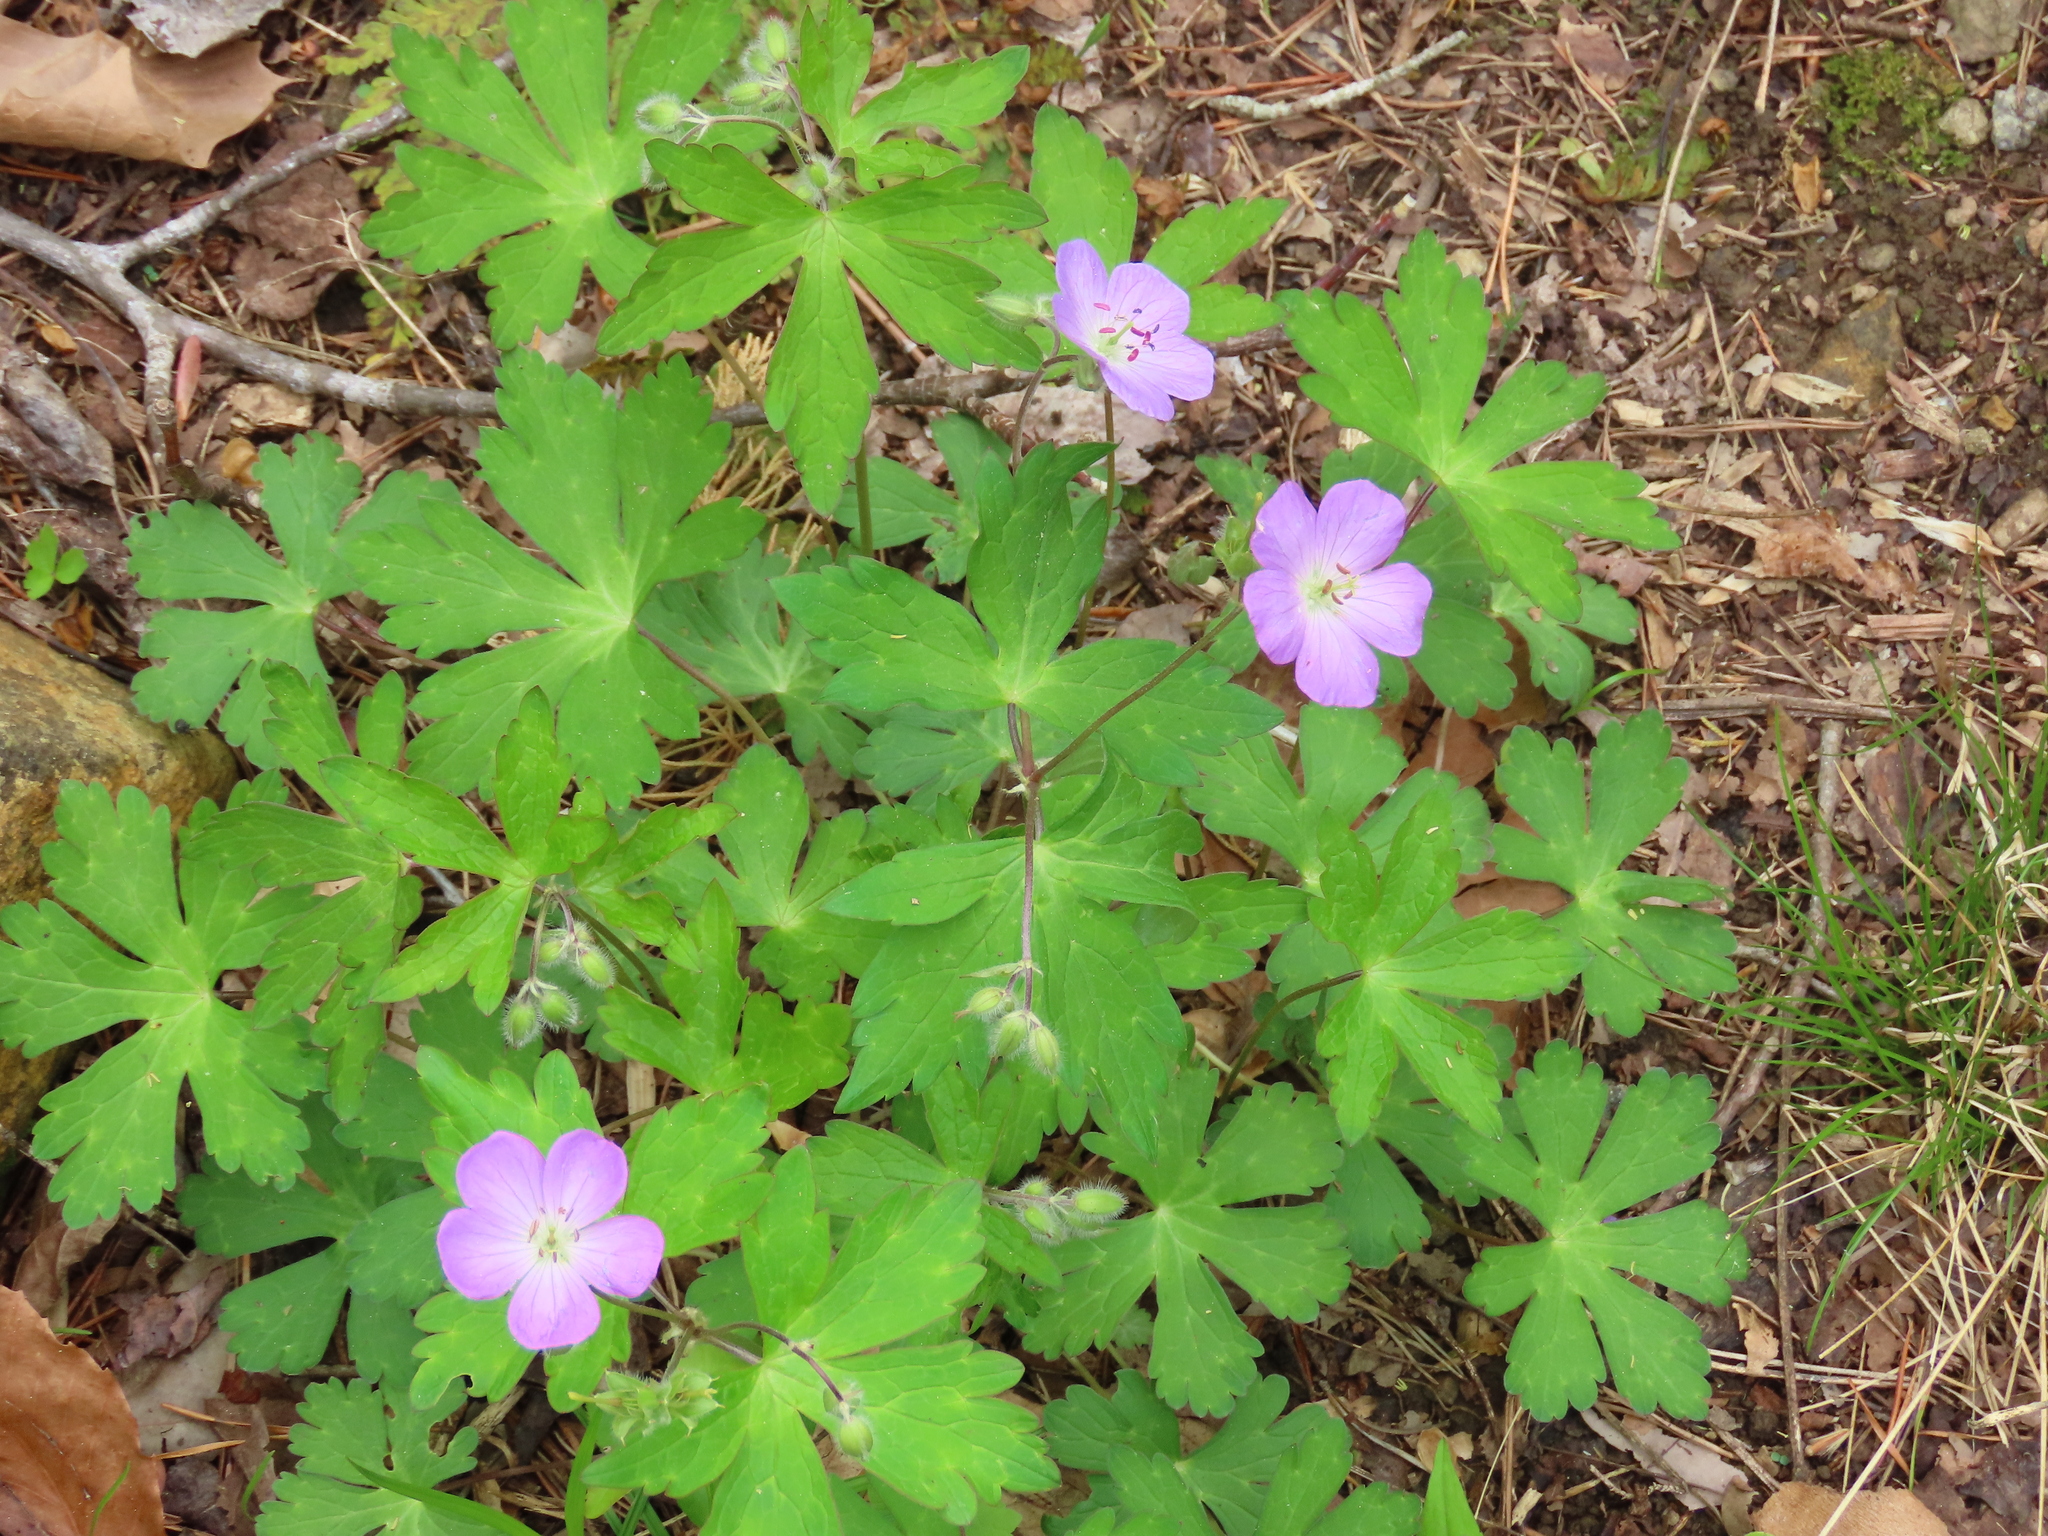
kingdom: Plantae
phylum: Tracheophyta
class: Magnoliopsida
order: Geraniales
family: Geraniaceae
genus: Geranium
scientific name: Geranium maculatum
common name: Spotted geranium
